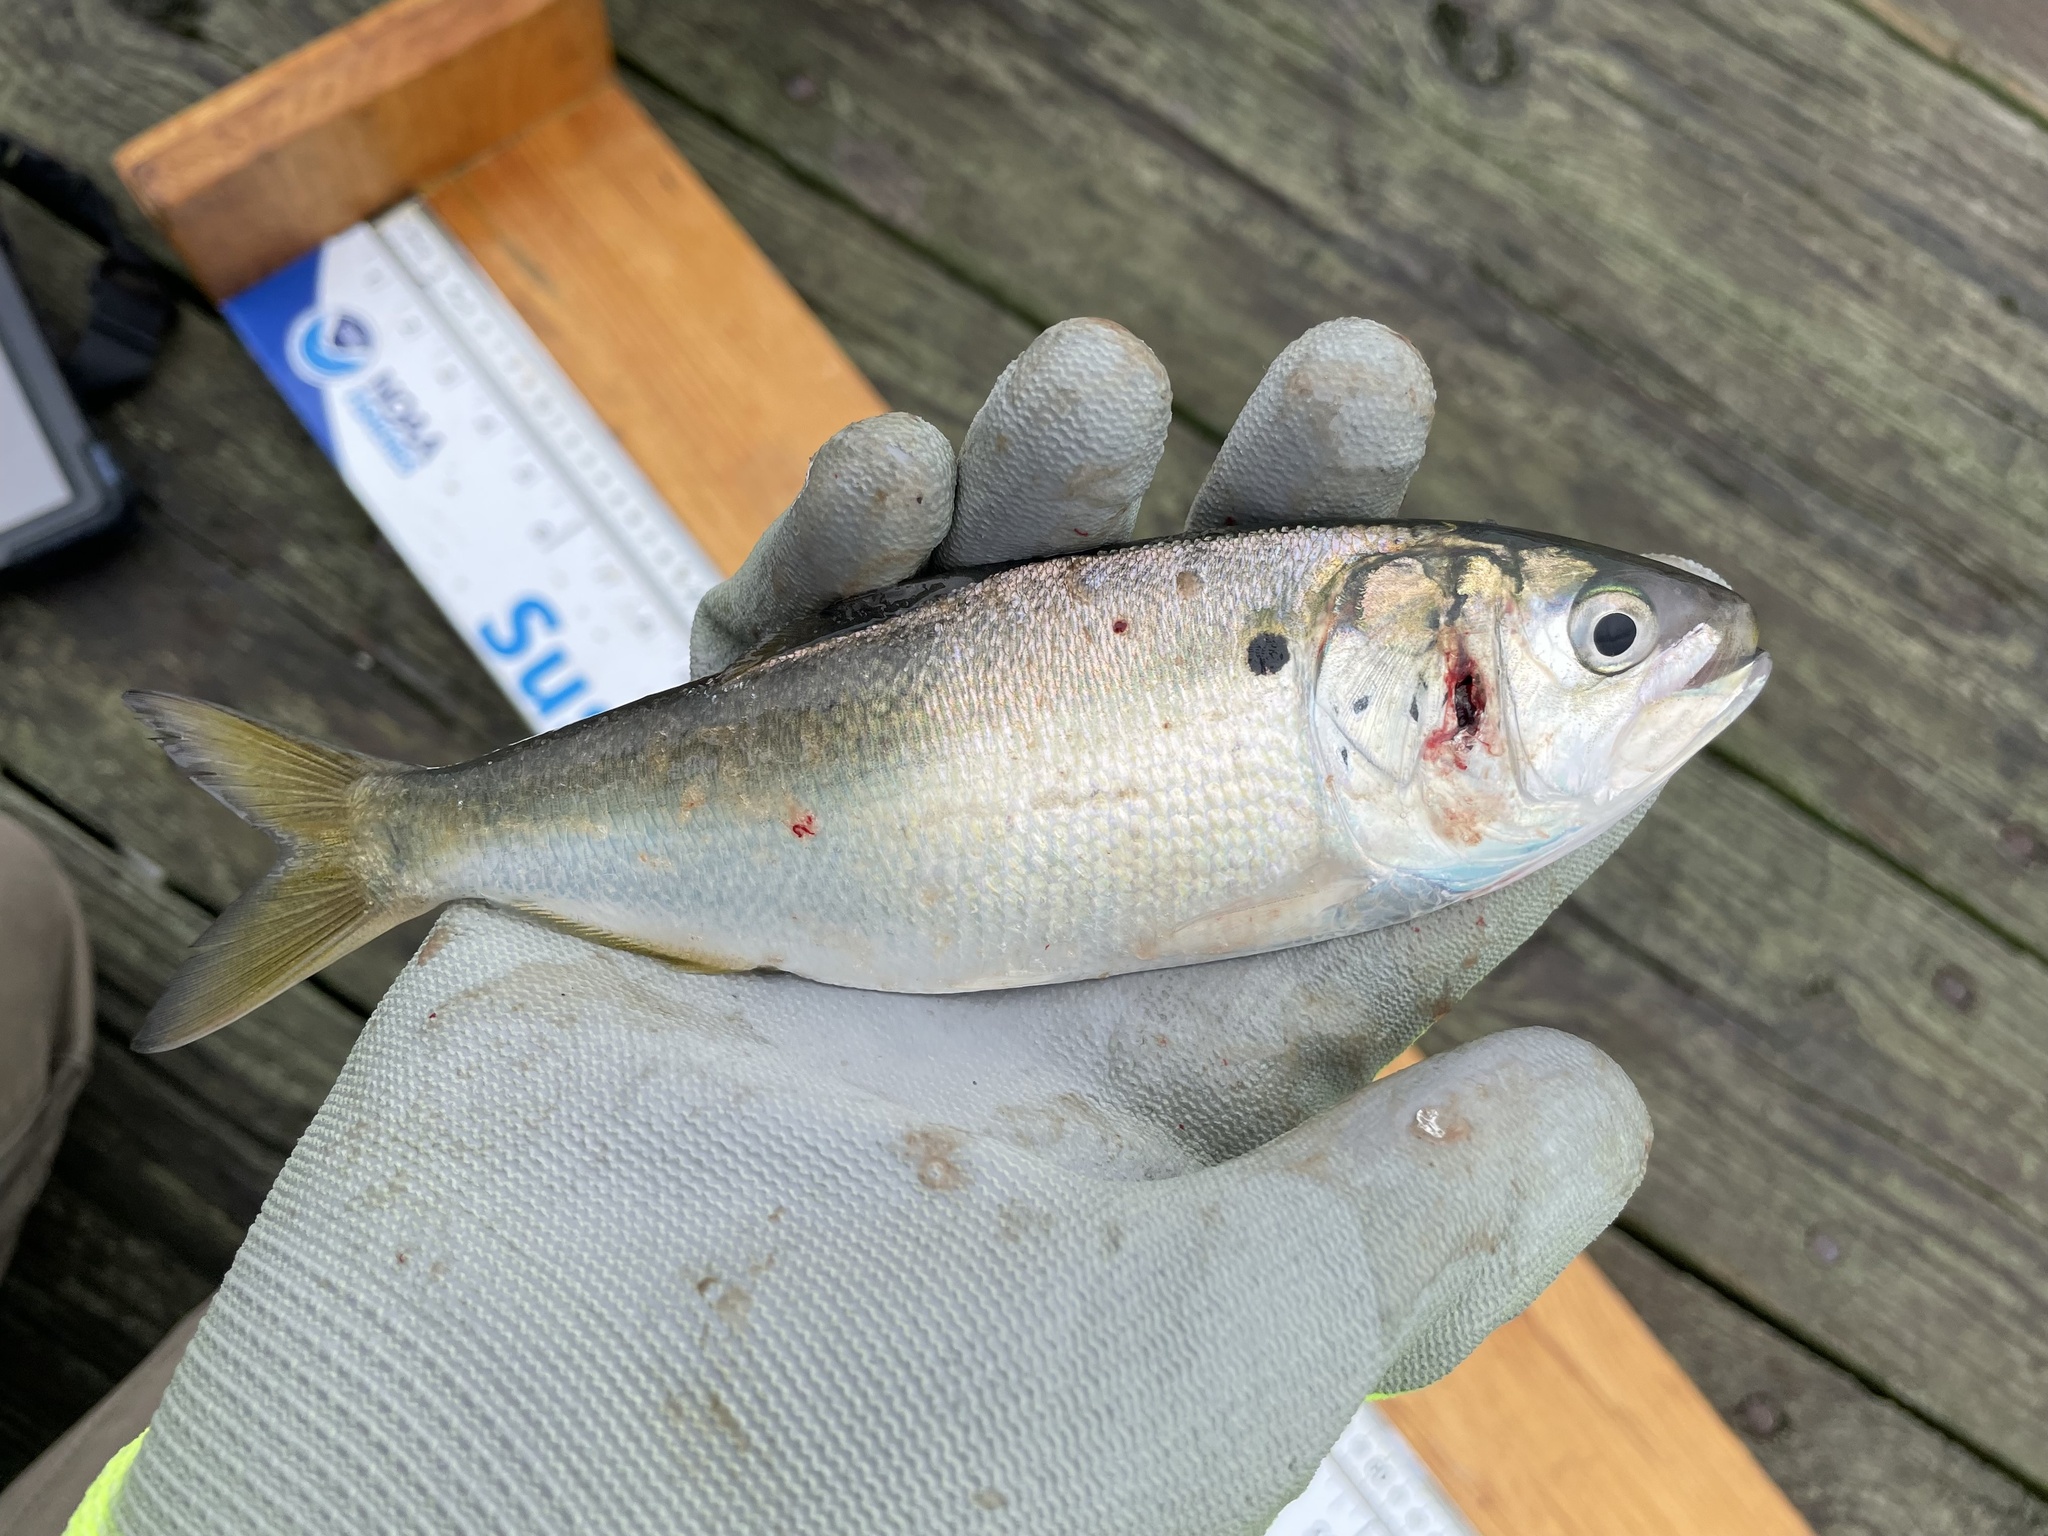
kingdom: Animalia
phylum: Chordata
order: Clupeiformes
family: Clupeidae
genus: Brevoortia
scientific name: Brevoortia tyrannus
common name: Atlantic menhaden
